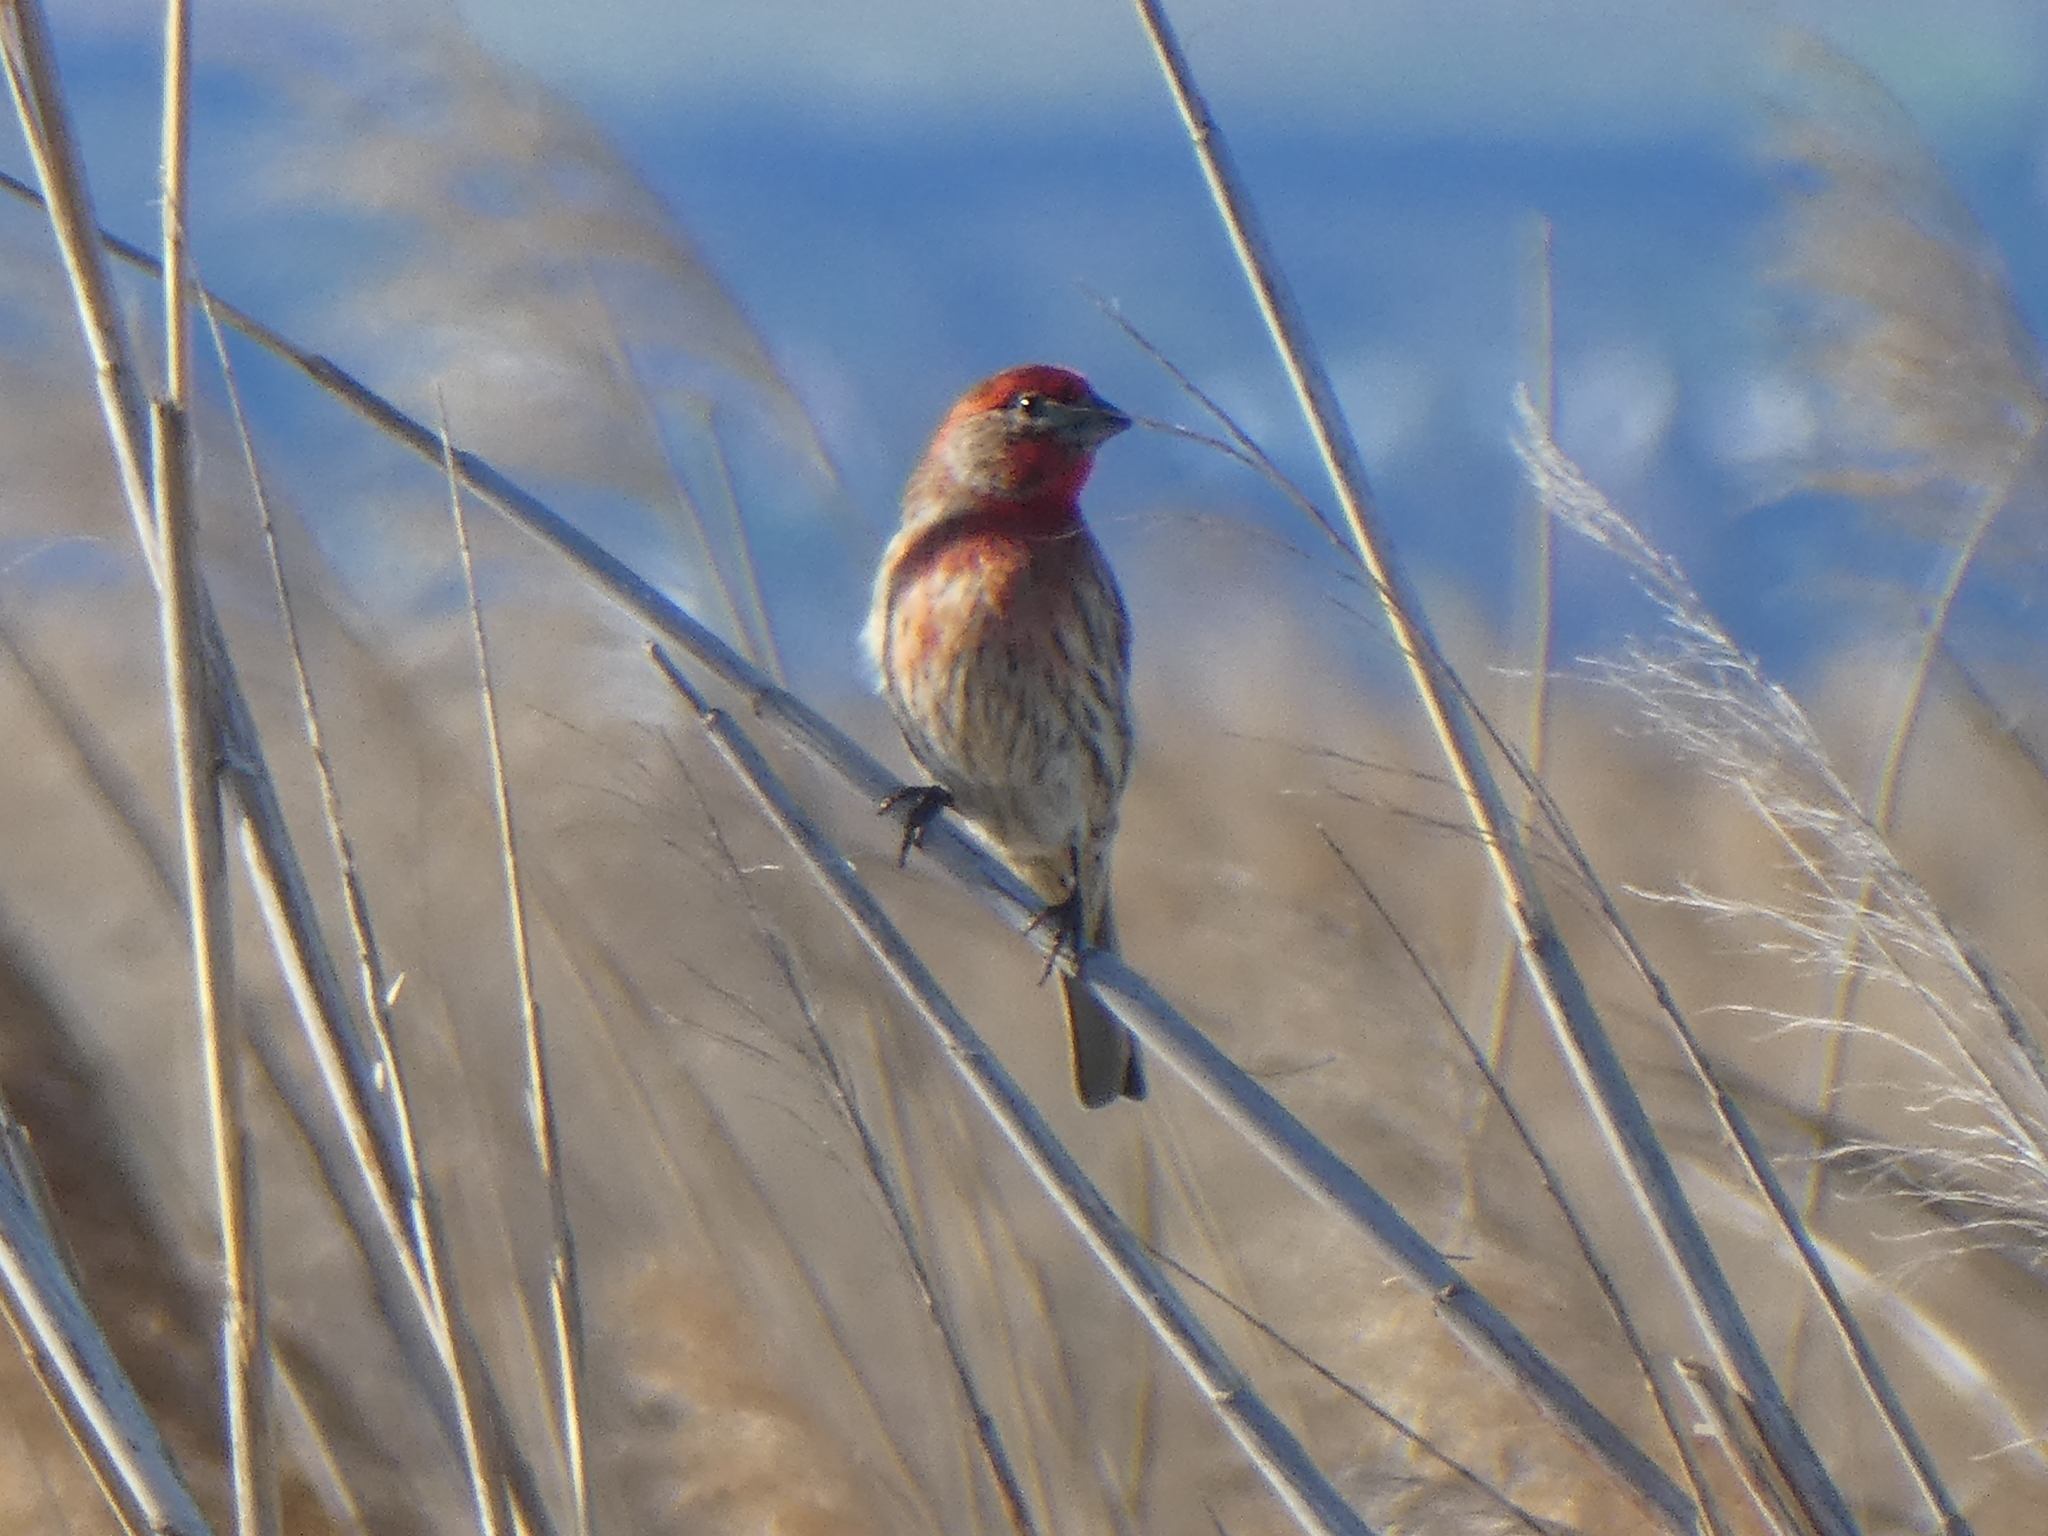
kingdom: Animalia
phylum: Chordata
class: Aves
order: Passeriformes
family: Fringillidae
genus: Haemorhous
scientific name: Haemorhous mexicanus
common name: House finch
